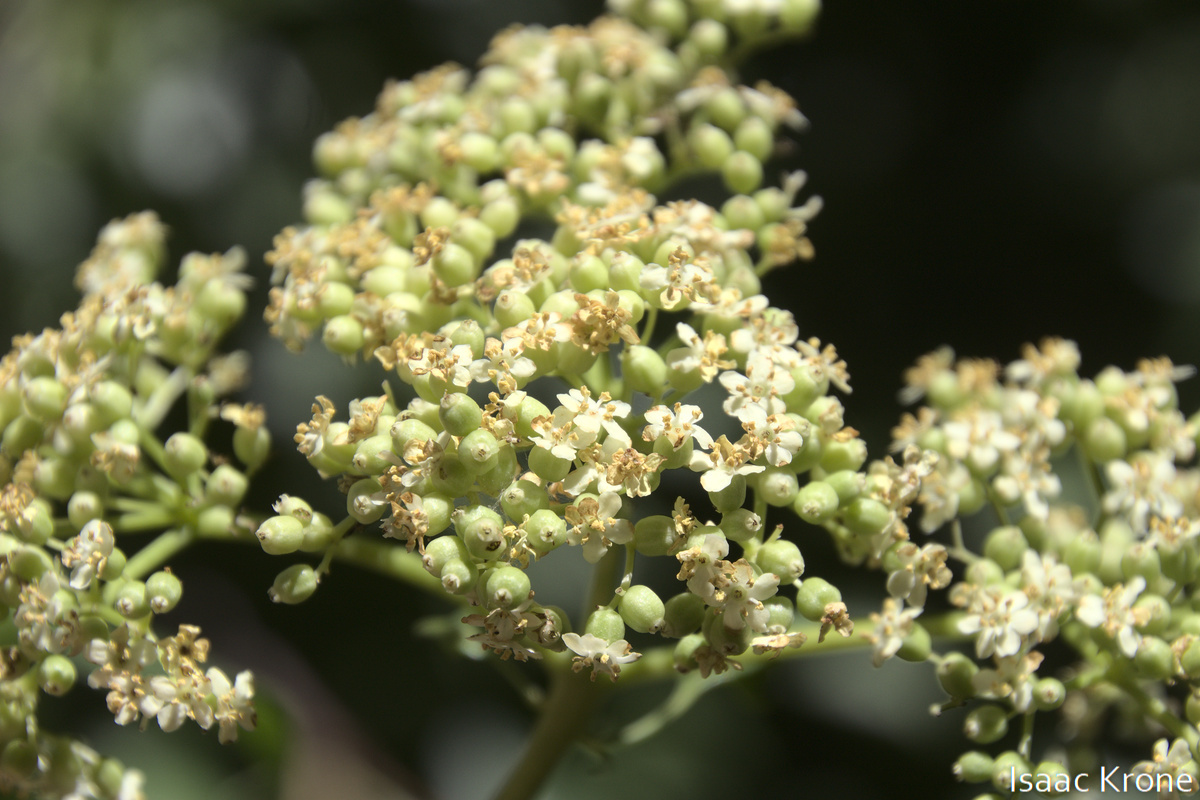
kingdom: Plantae
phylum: Tracheophyta
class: Magnoliopsida
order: Dipsacales
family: Viburnaceae
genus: Sambucus
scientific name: Sambucus cerulea
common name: Blue elder
